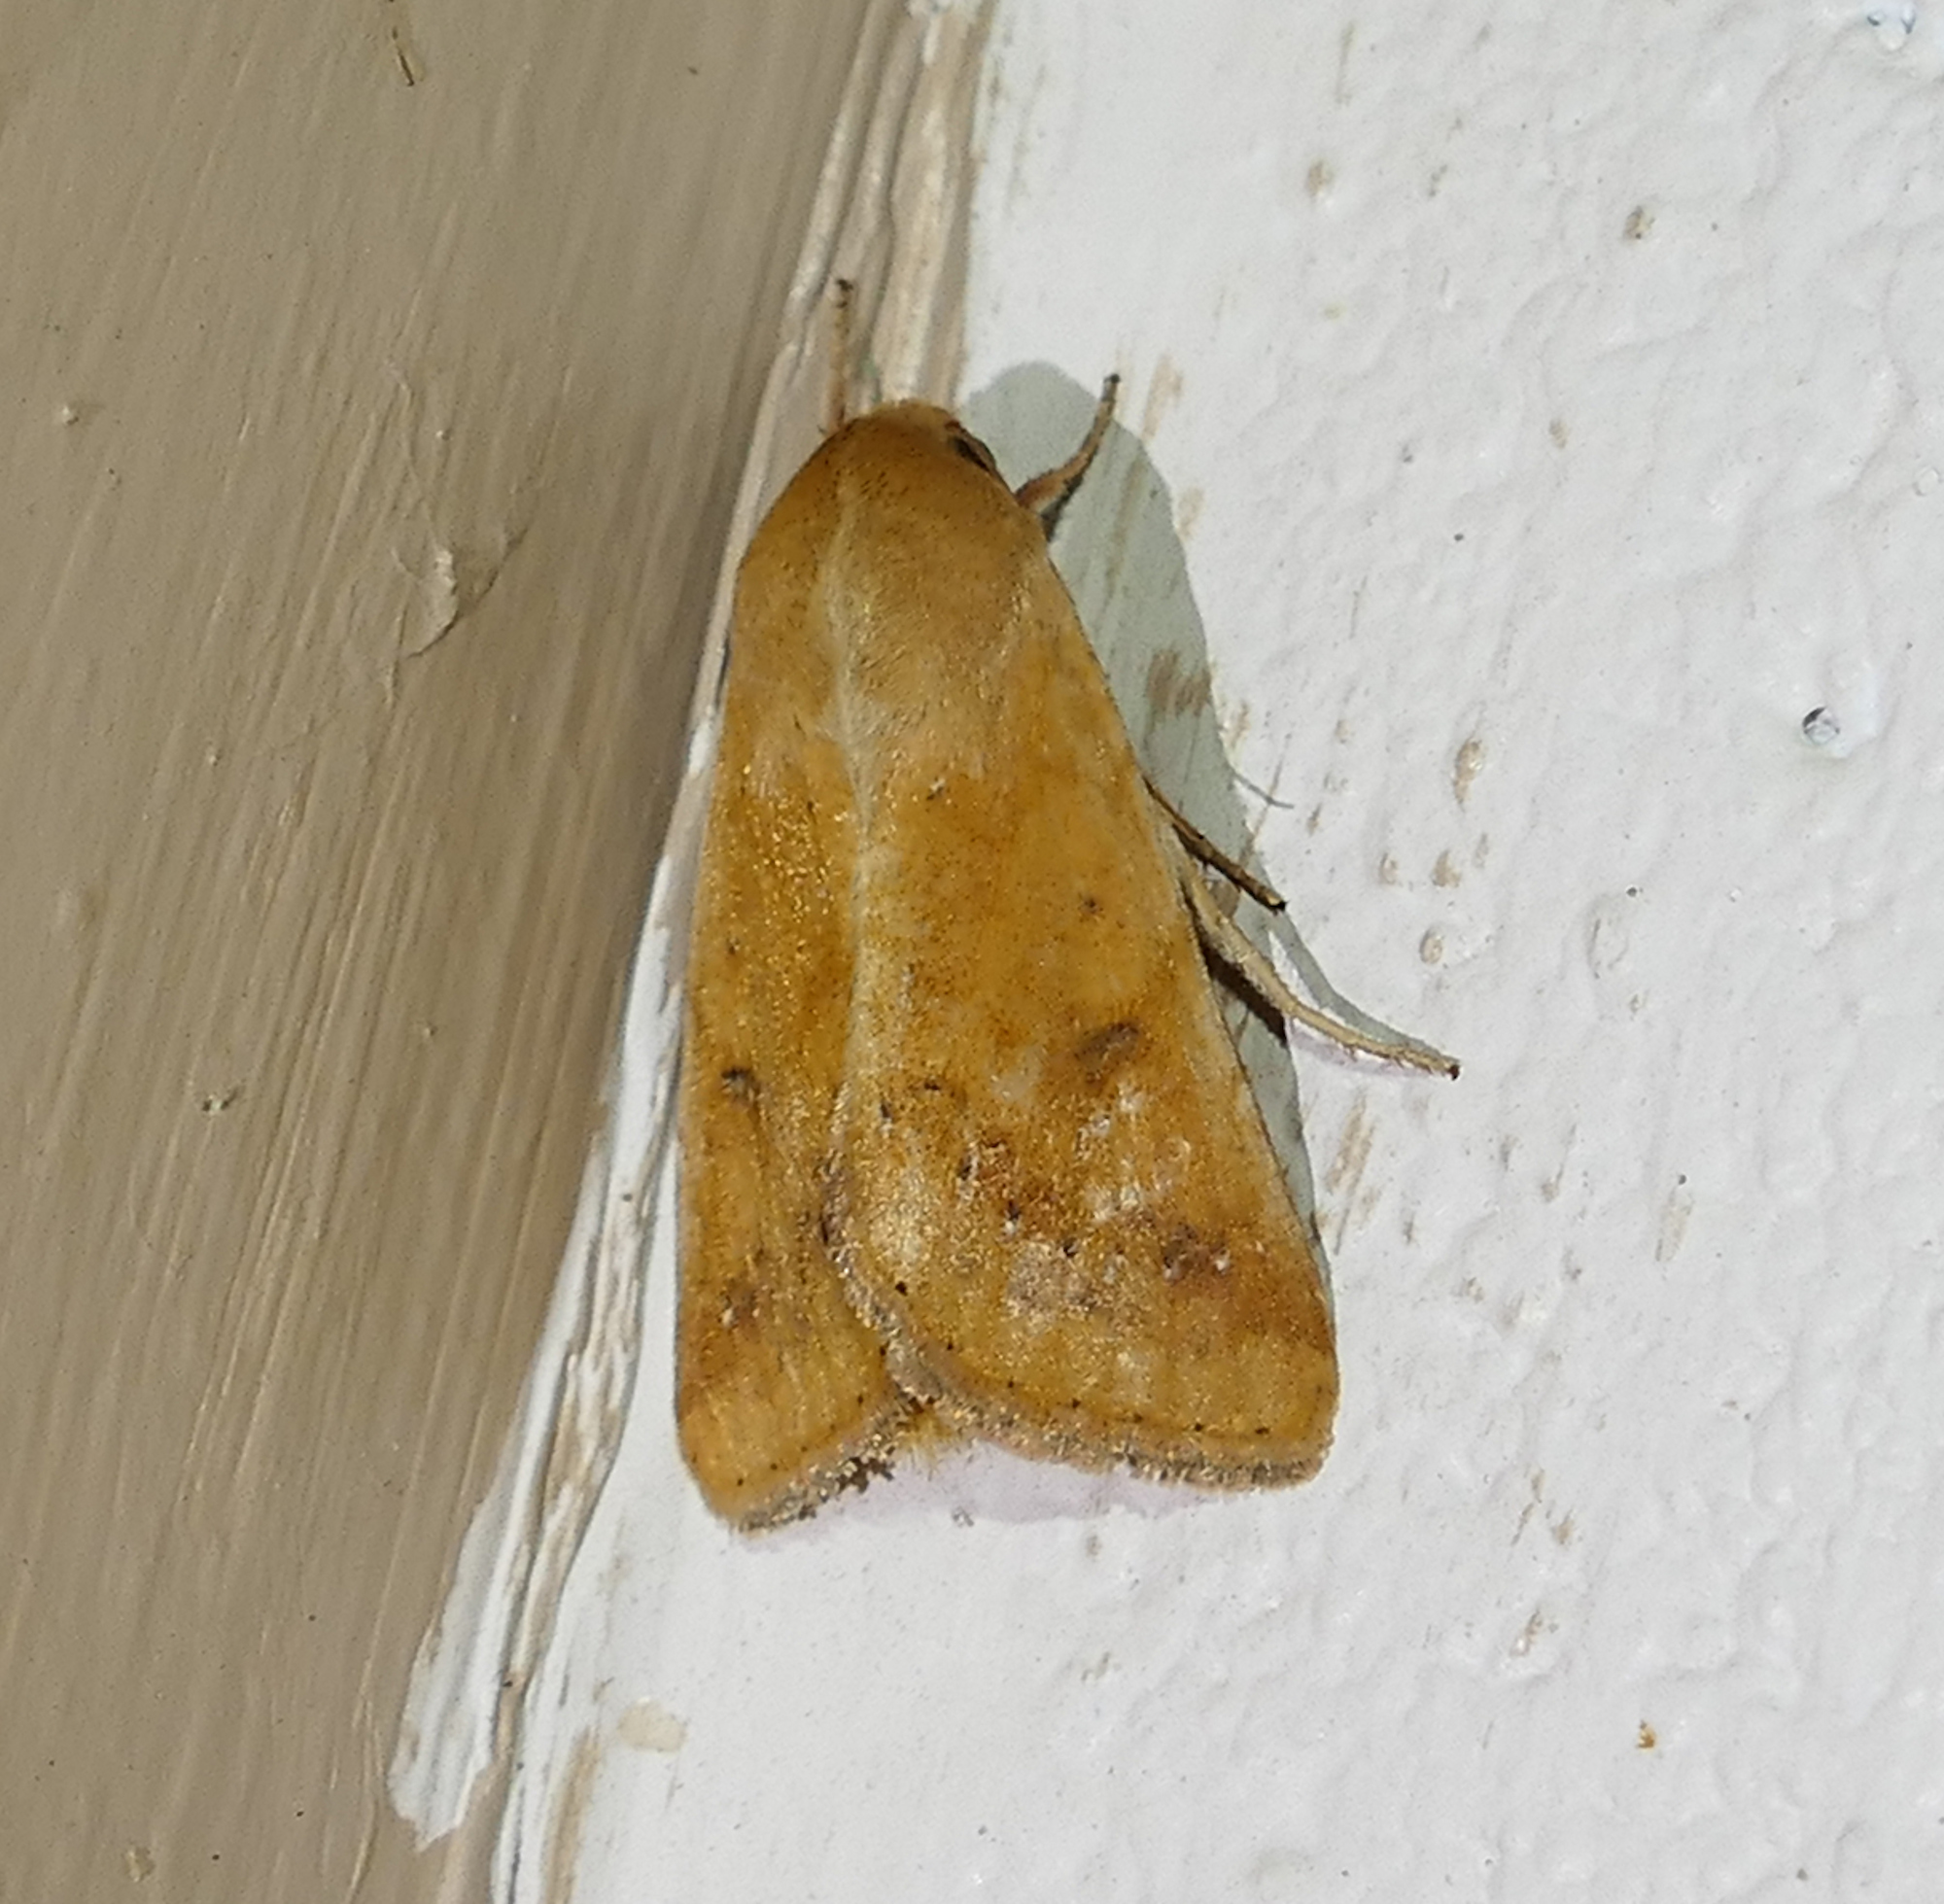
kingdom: Animalia
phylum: Arthropoda
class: Insecta
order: Lepidoptera
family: Noctuidae
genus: Helicoverpa
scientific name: Helicoverpa zea
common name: Bollworm
